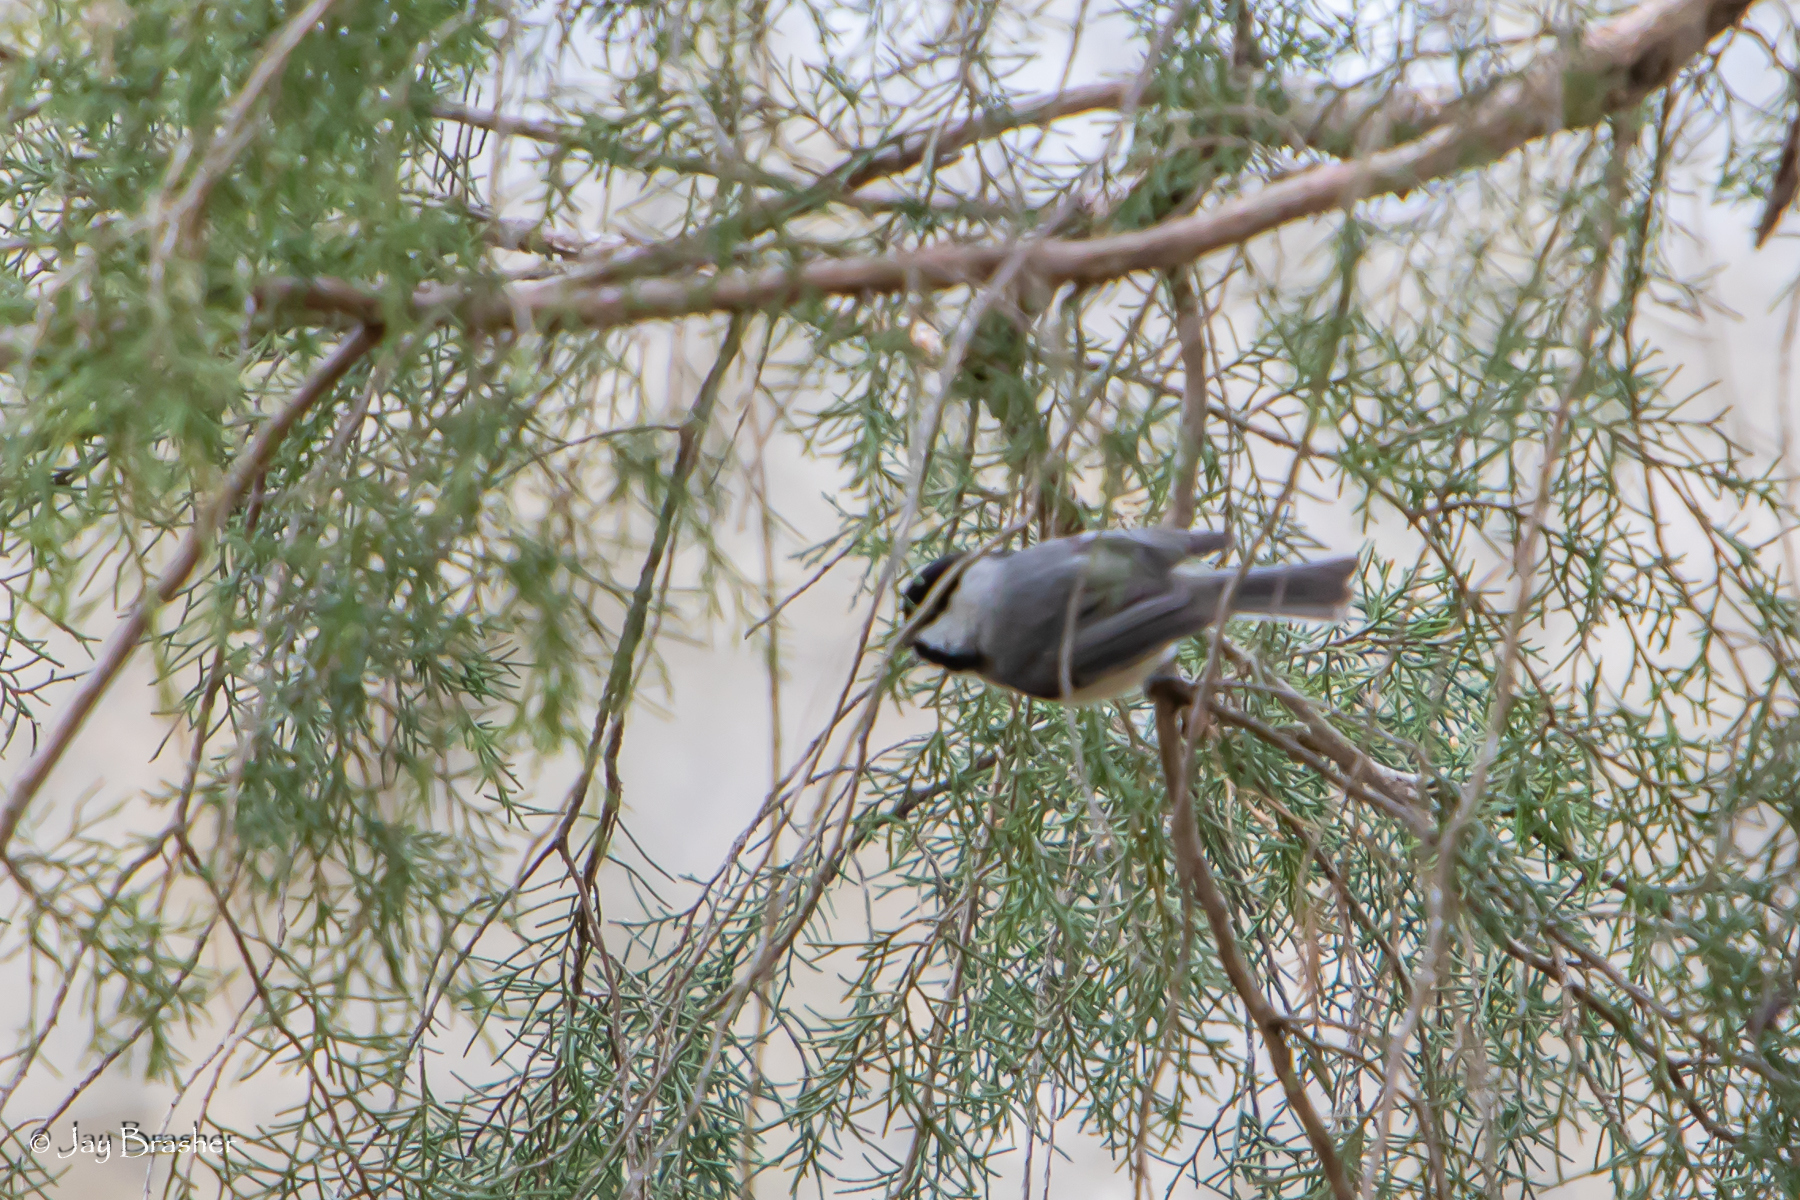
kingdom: Animalia
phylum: Chordata
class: Aves
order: Passeriformes
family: Paridae
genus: Poecile
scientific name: Poecile carolinensis
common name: Carolina chickadee
